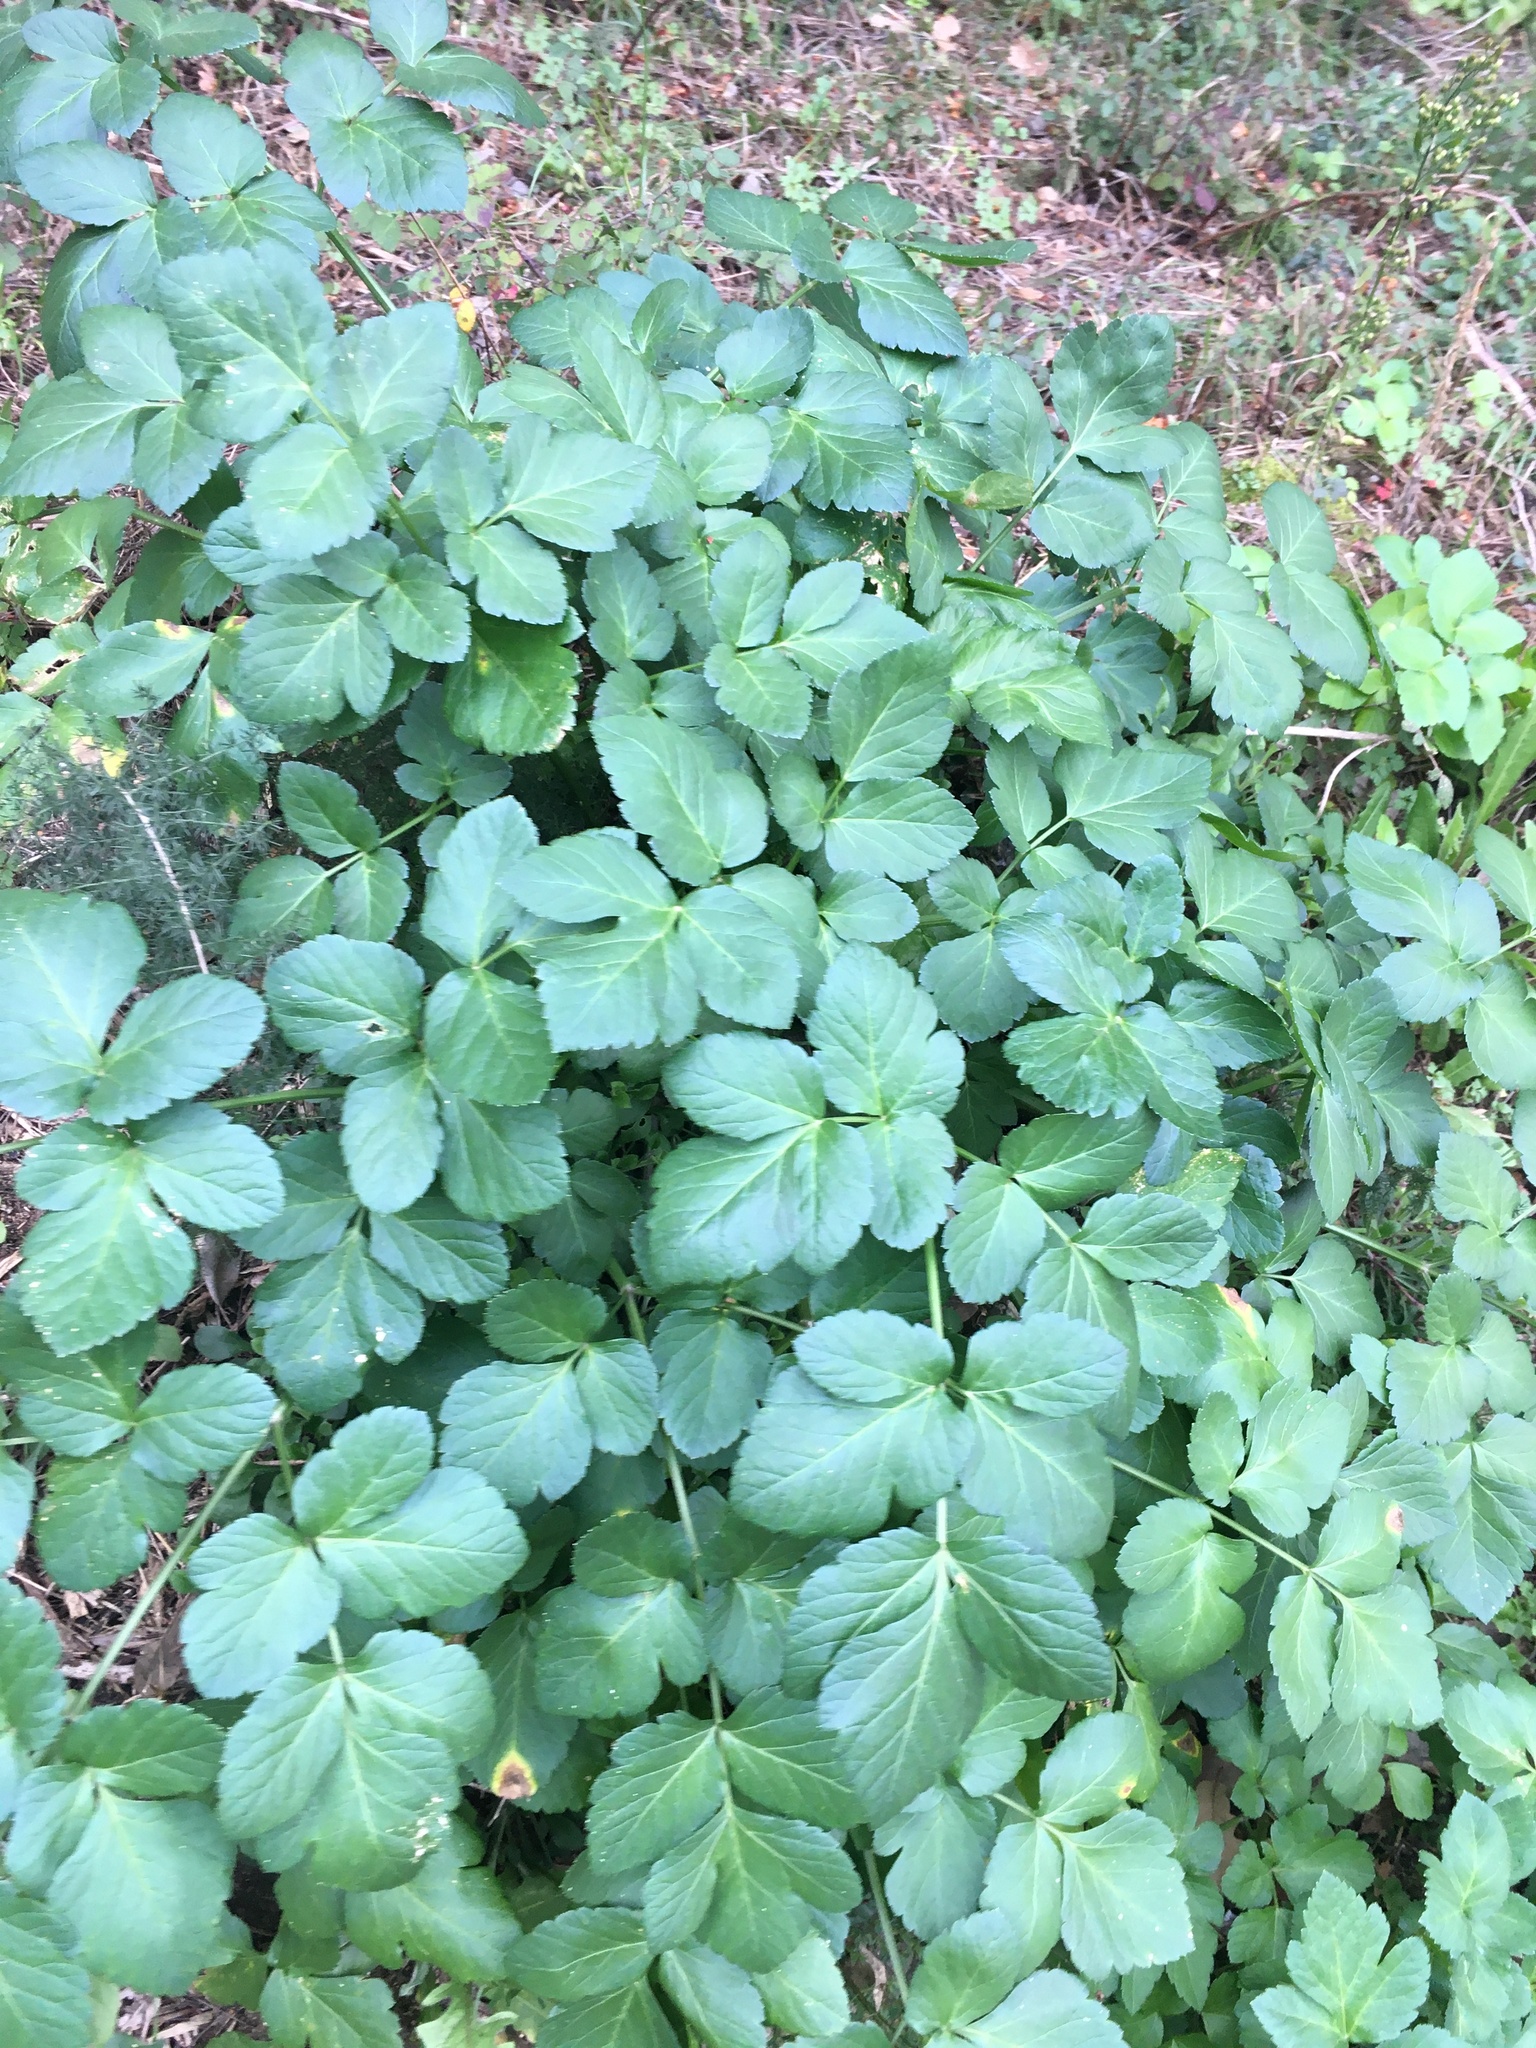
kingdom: Plantae
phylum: Tracheophyta
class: Magnoliopsida
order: Apiales
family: Apiaceae
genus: Smyrnium
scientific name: Smyrnium olusatrum
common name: Alexanders
